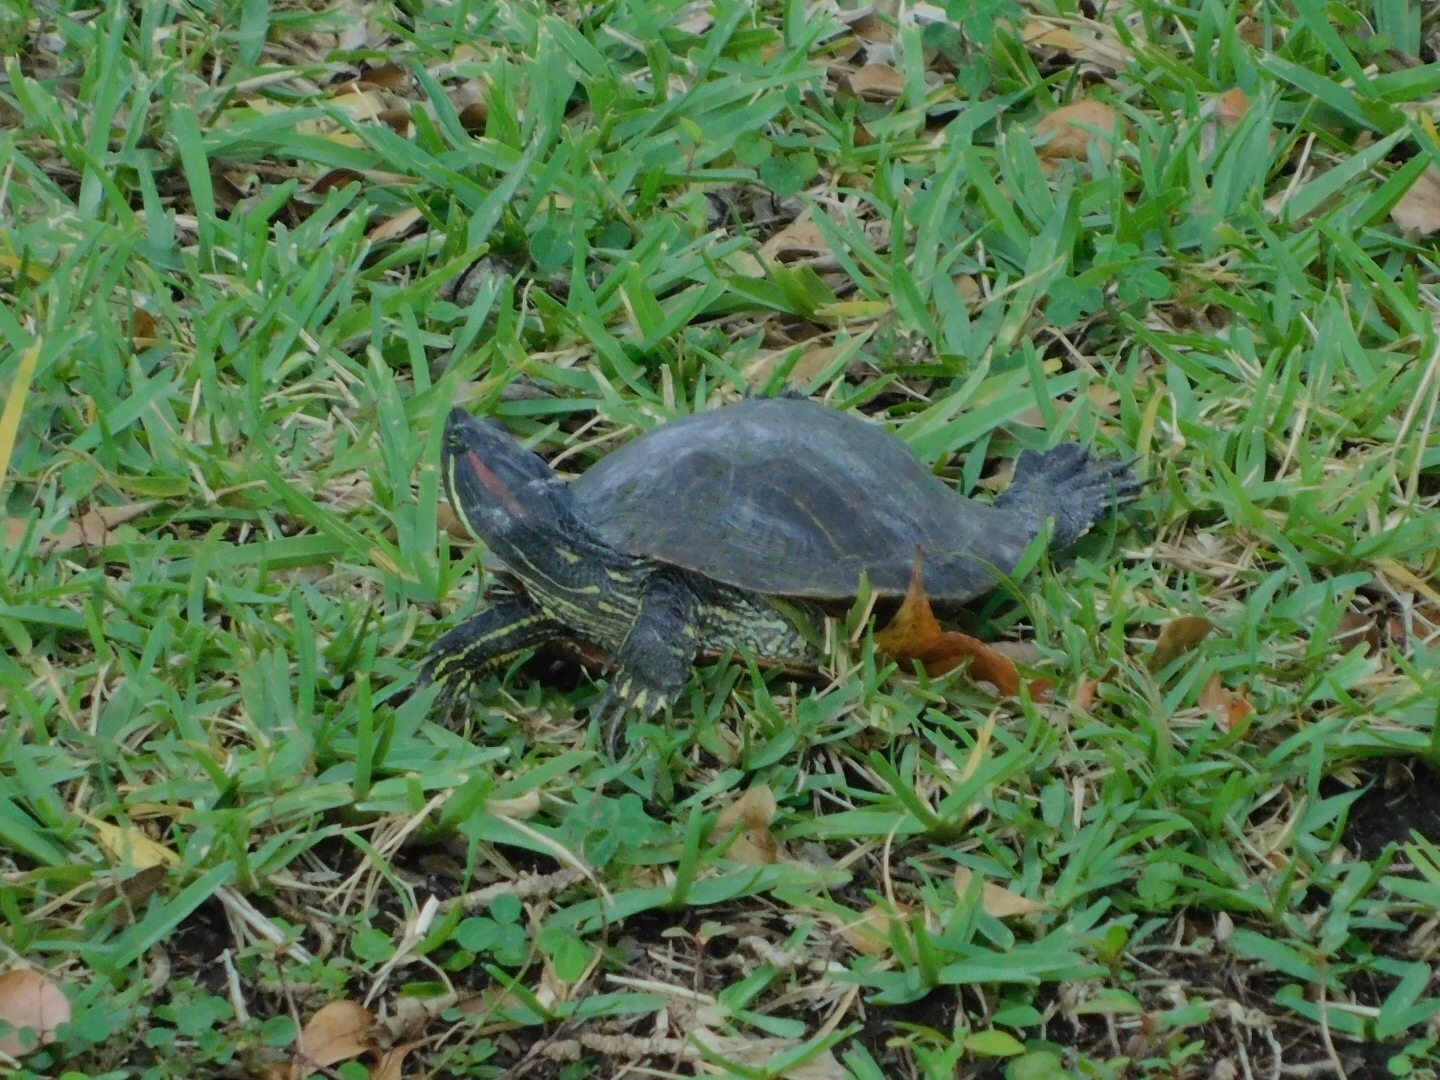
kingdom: Animalia
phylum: Chordata
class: Testudines
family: Emydidae
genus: Trachemys
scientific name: Trachemys scripta
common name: Slider
